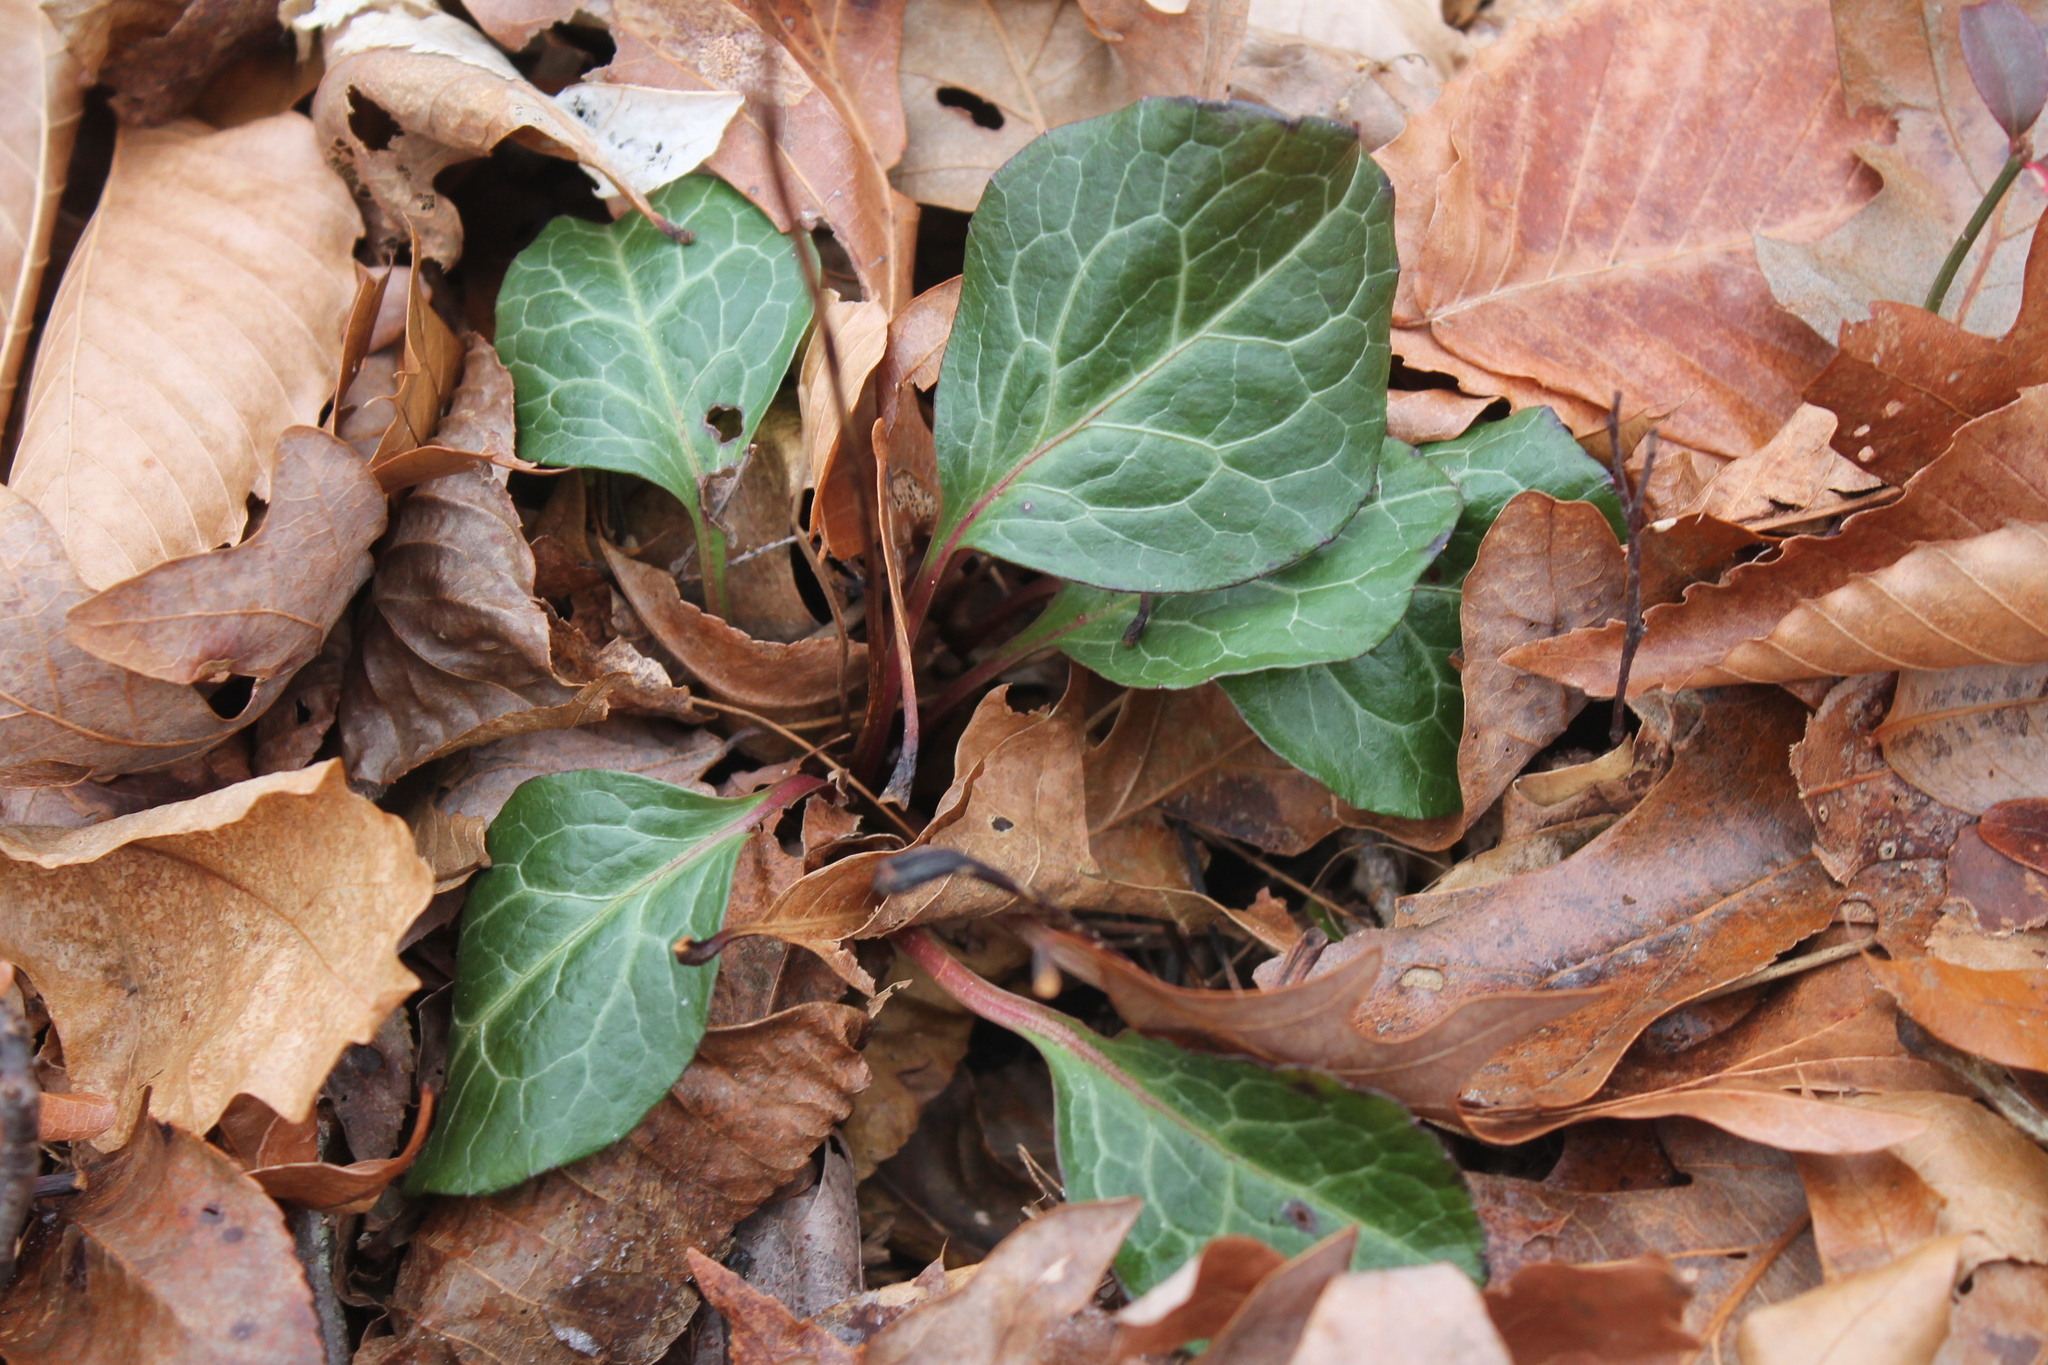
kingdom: Plantae
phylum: Tracheophyta
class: Magnoliopsida
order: Ericales
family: Ericaceae
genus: Pyrola
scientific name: Pyrola americana
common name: American wintergreen
